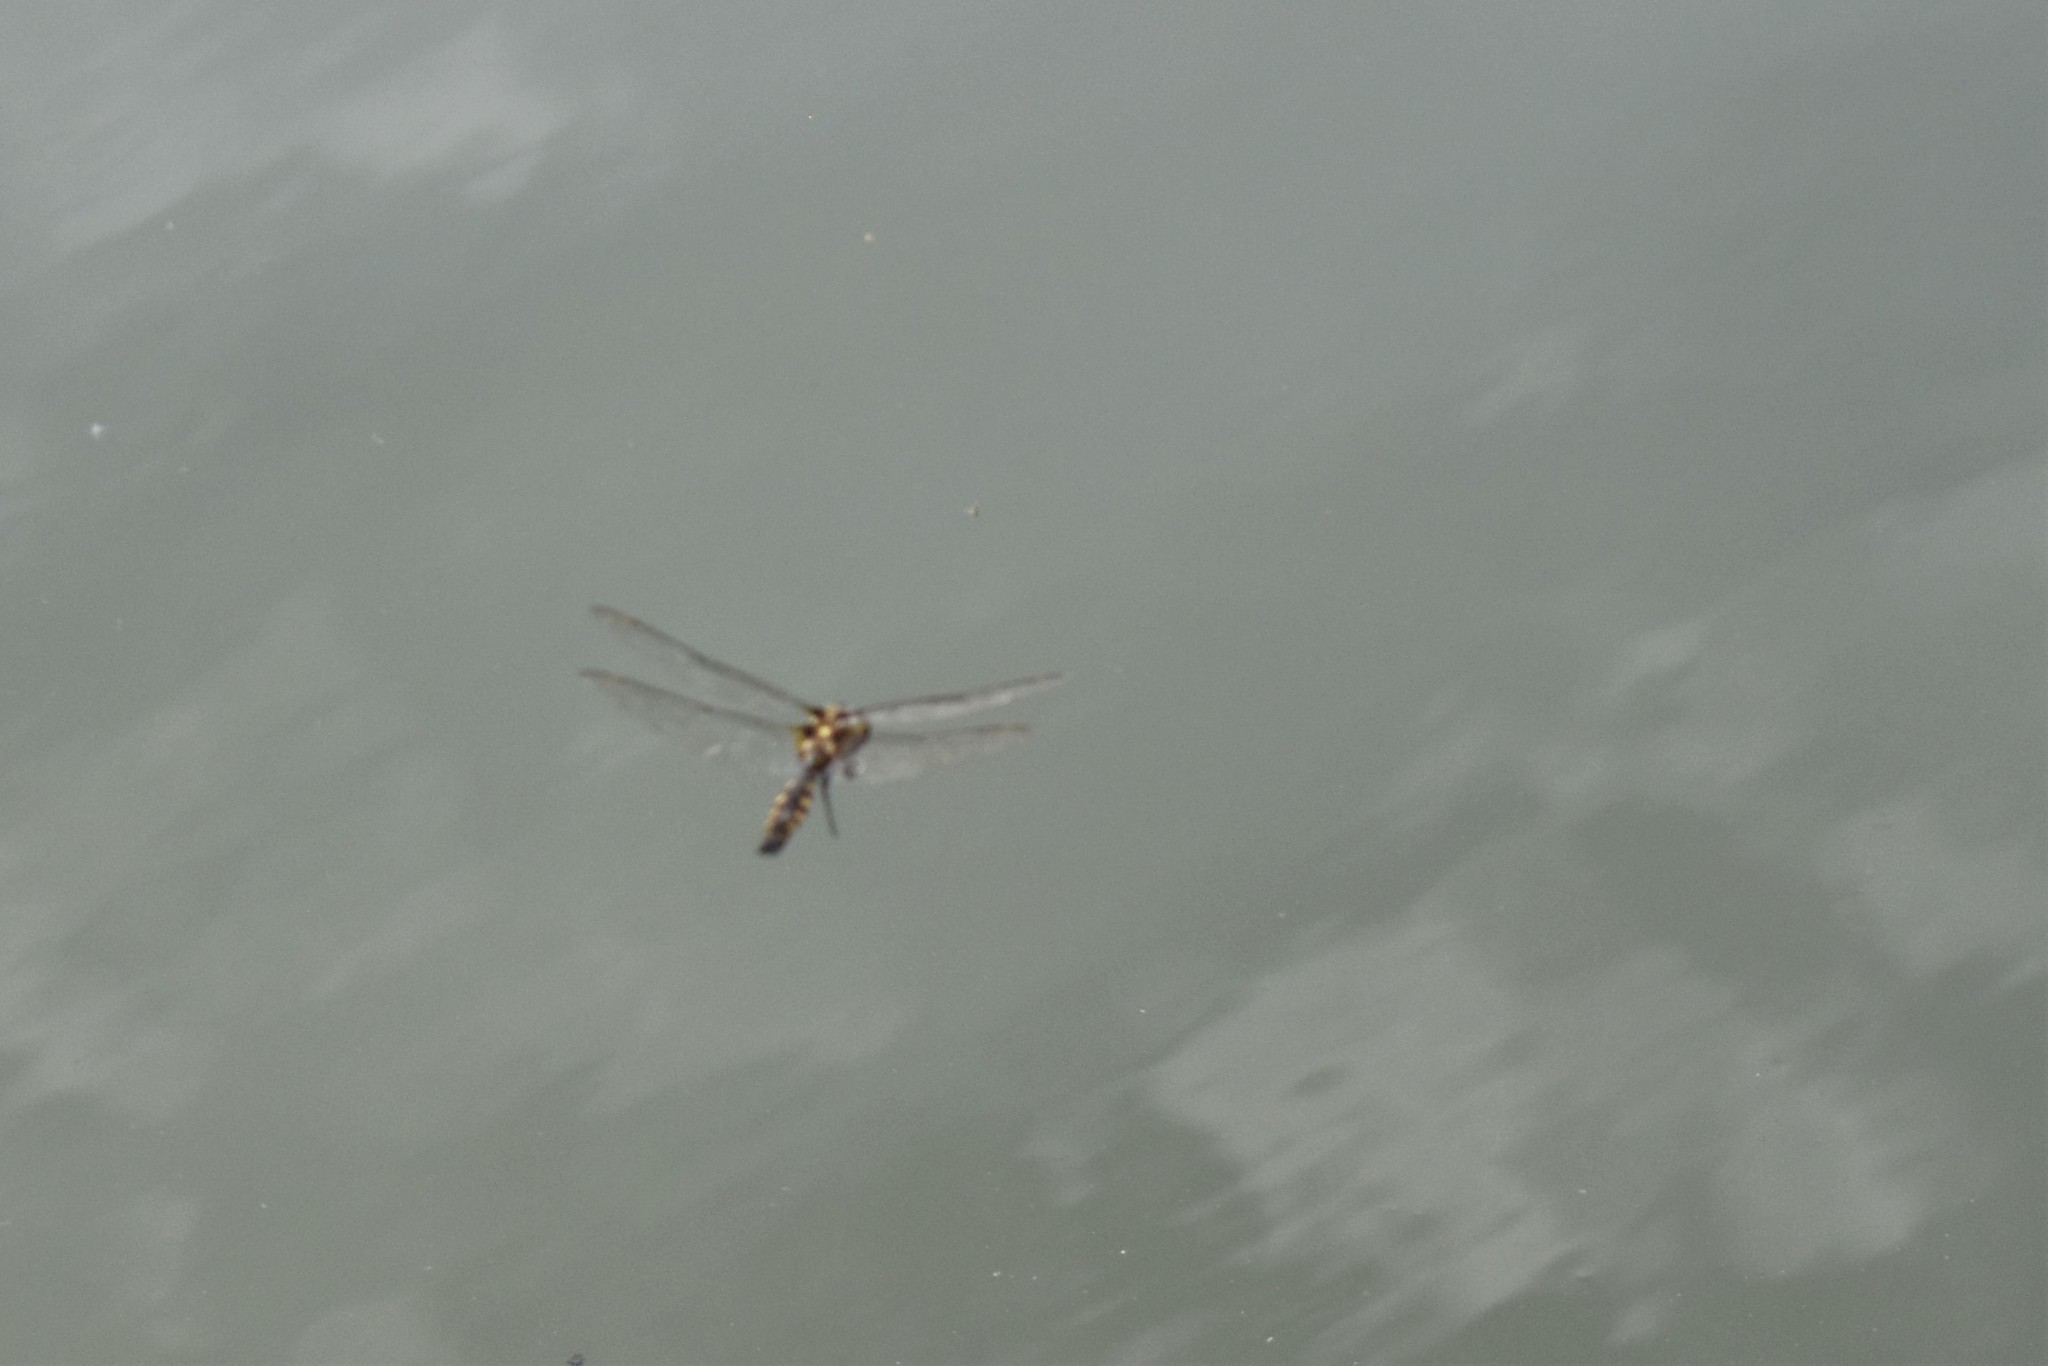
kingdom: Animalia
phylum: Arthropoda
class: Insecta
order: Odonata
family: Corduliidae
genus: Procordulia
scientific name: Procordulia grayi
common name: Yellow spotted dragonfly
